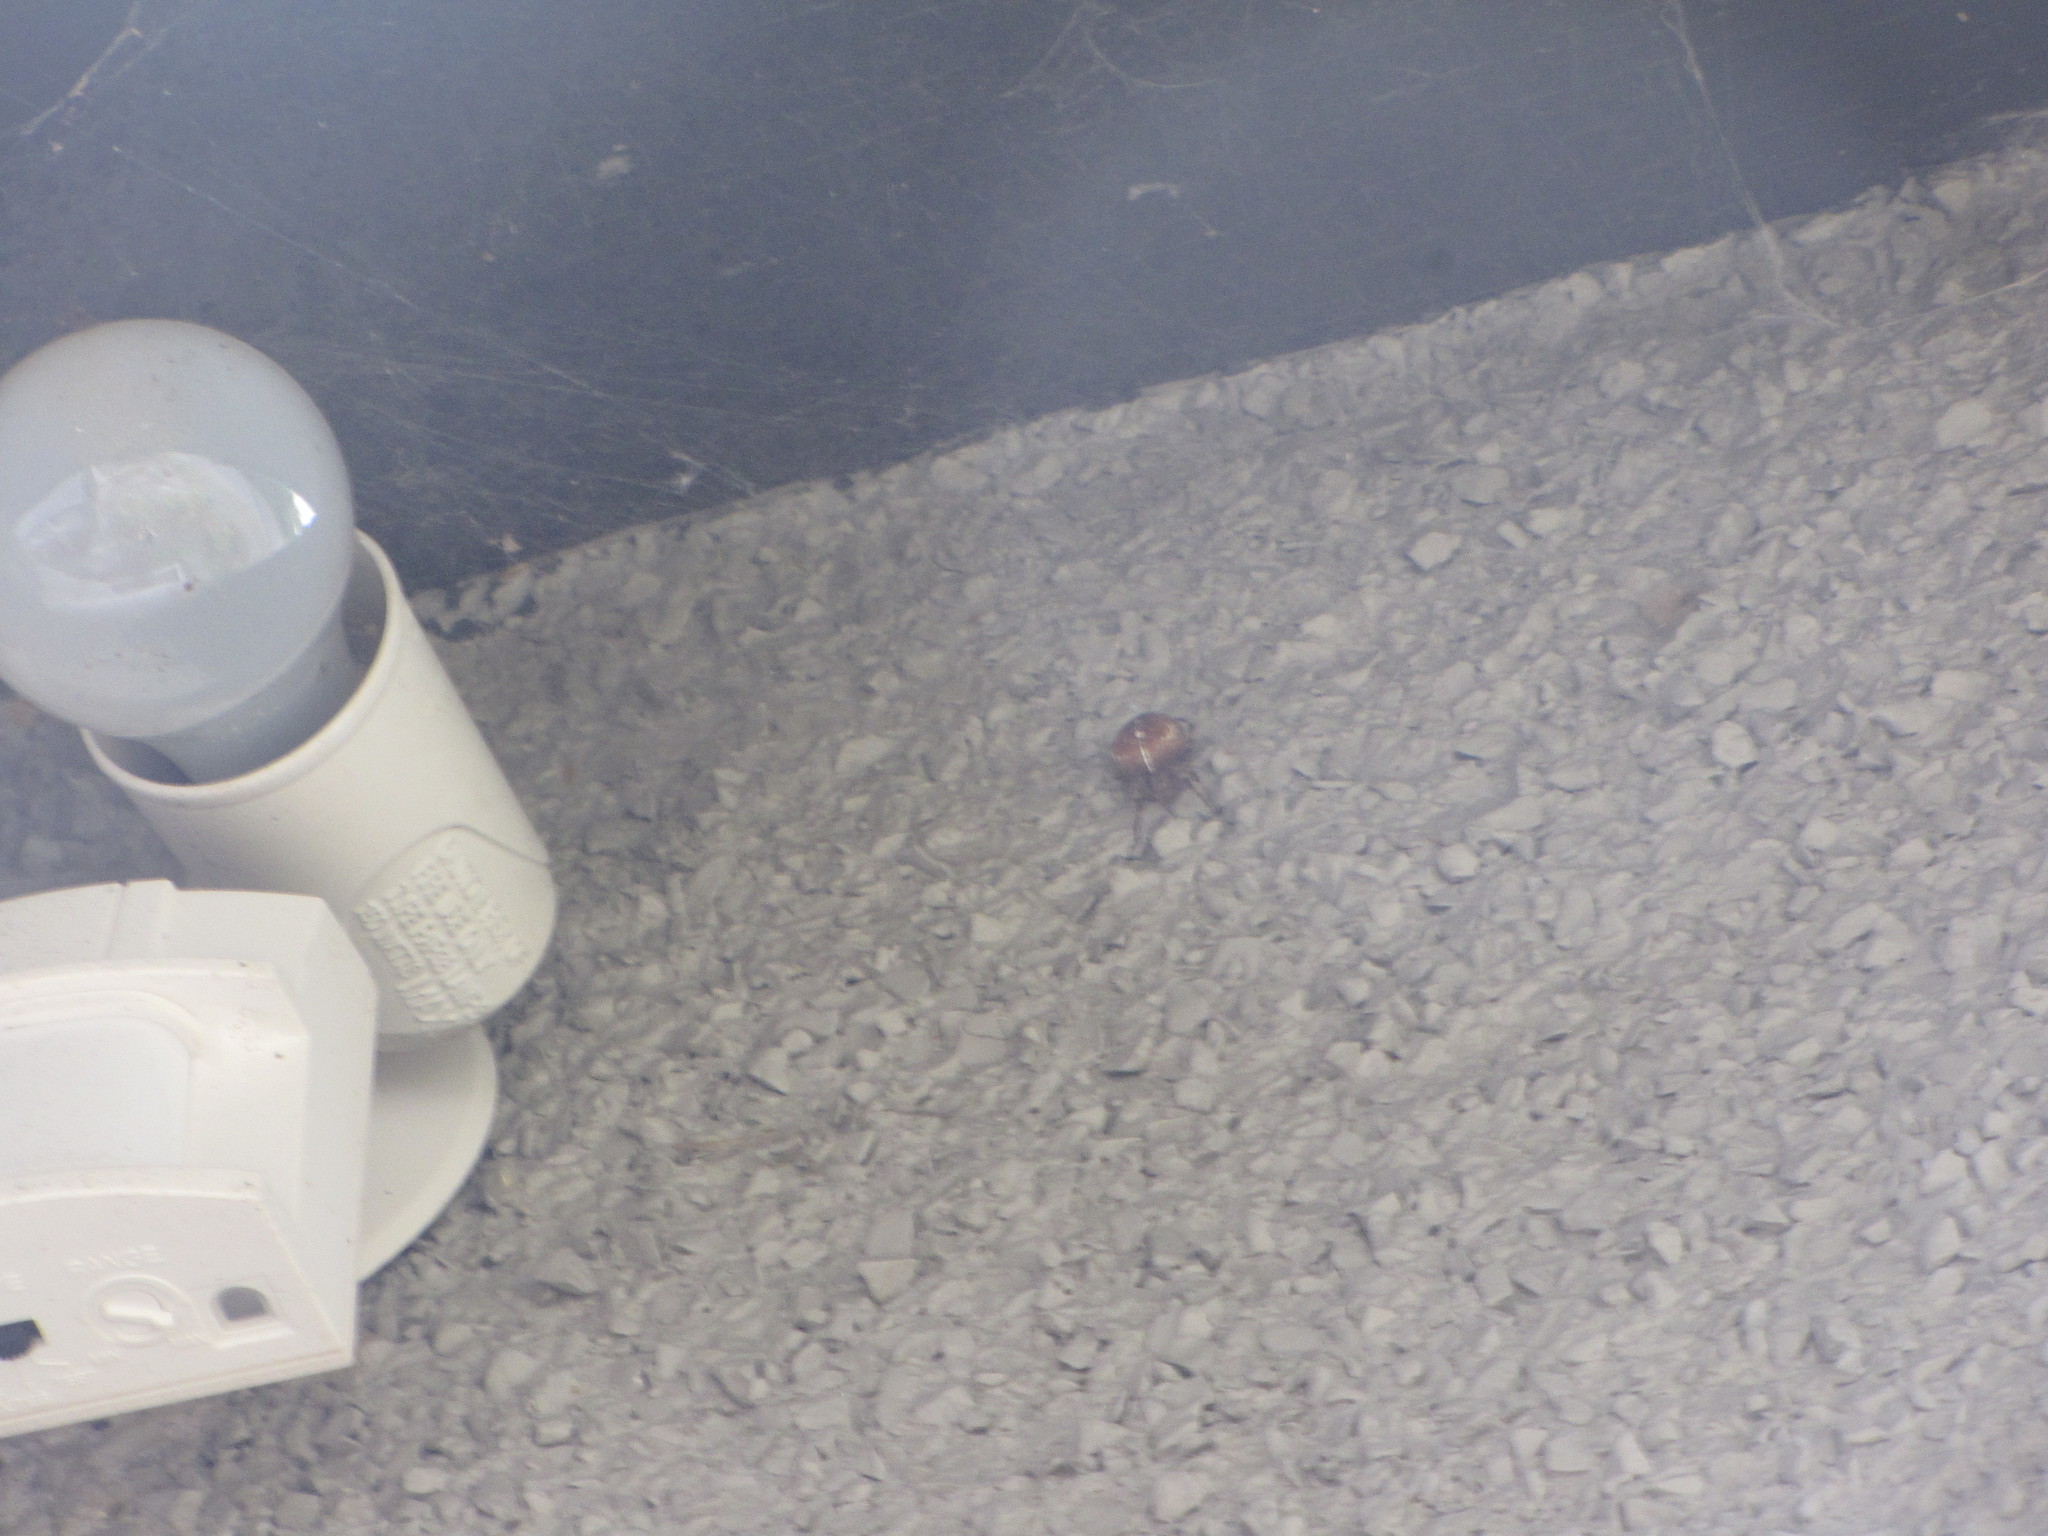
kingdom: Animalia
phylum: Arthropoda
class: Arachnida
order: Araneae
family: Araneidae
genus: Araneus
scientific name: Araneus diadematus
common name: Cross orbweaver
